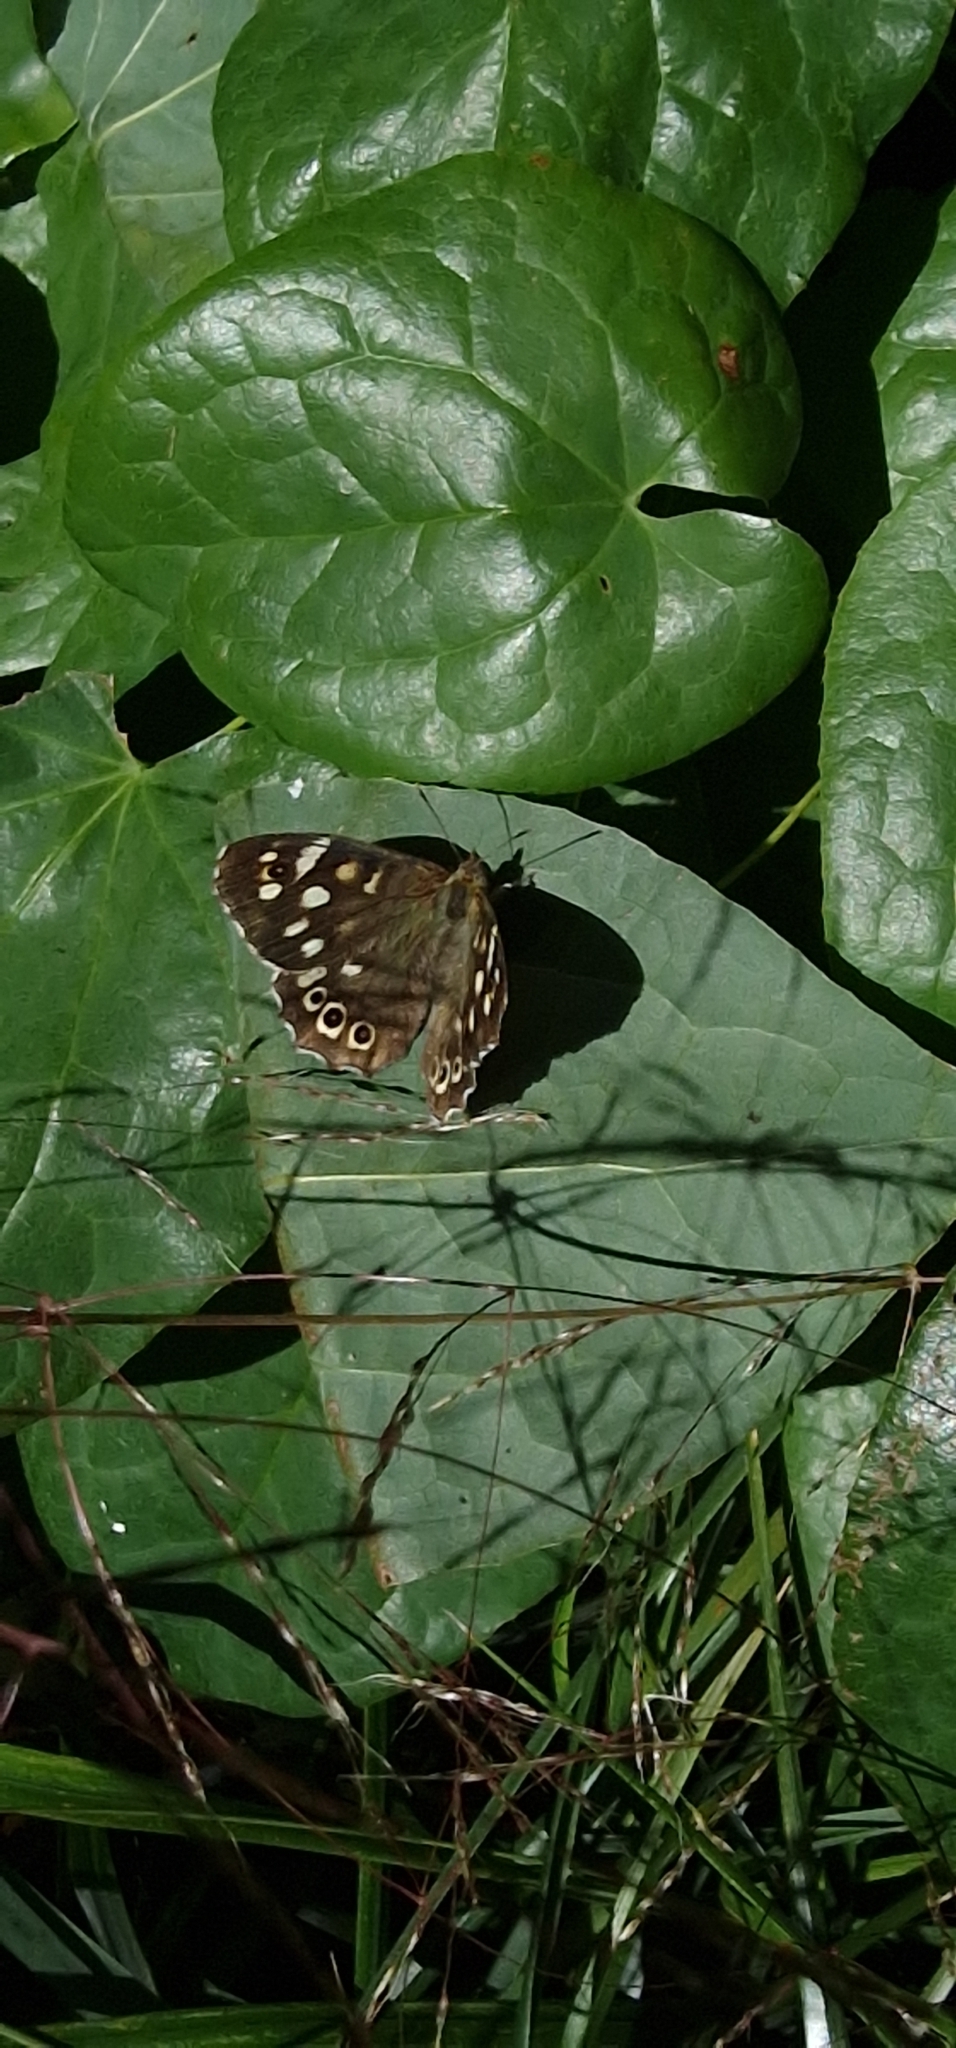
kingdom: Animalia
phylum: Arthropoda
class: Insecta
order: Lepidoptera
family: Nymphalidae
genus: Pararge
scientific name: Pararge aegeria
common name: Speckled wood
